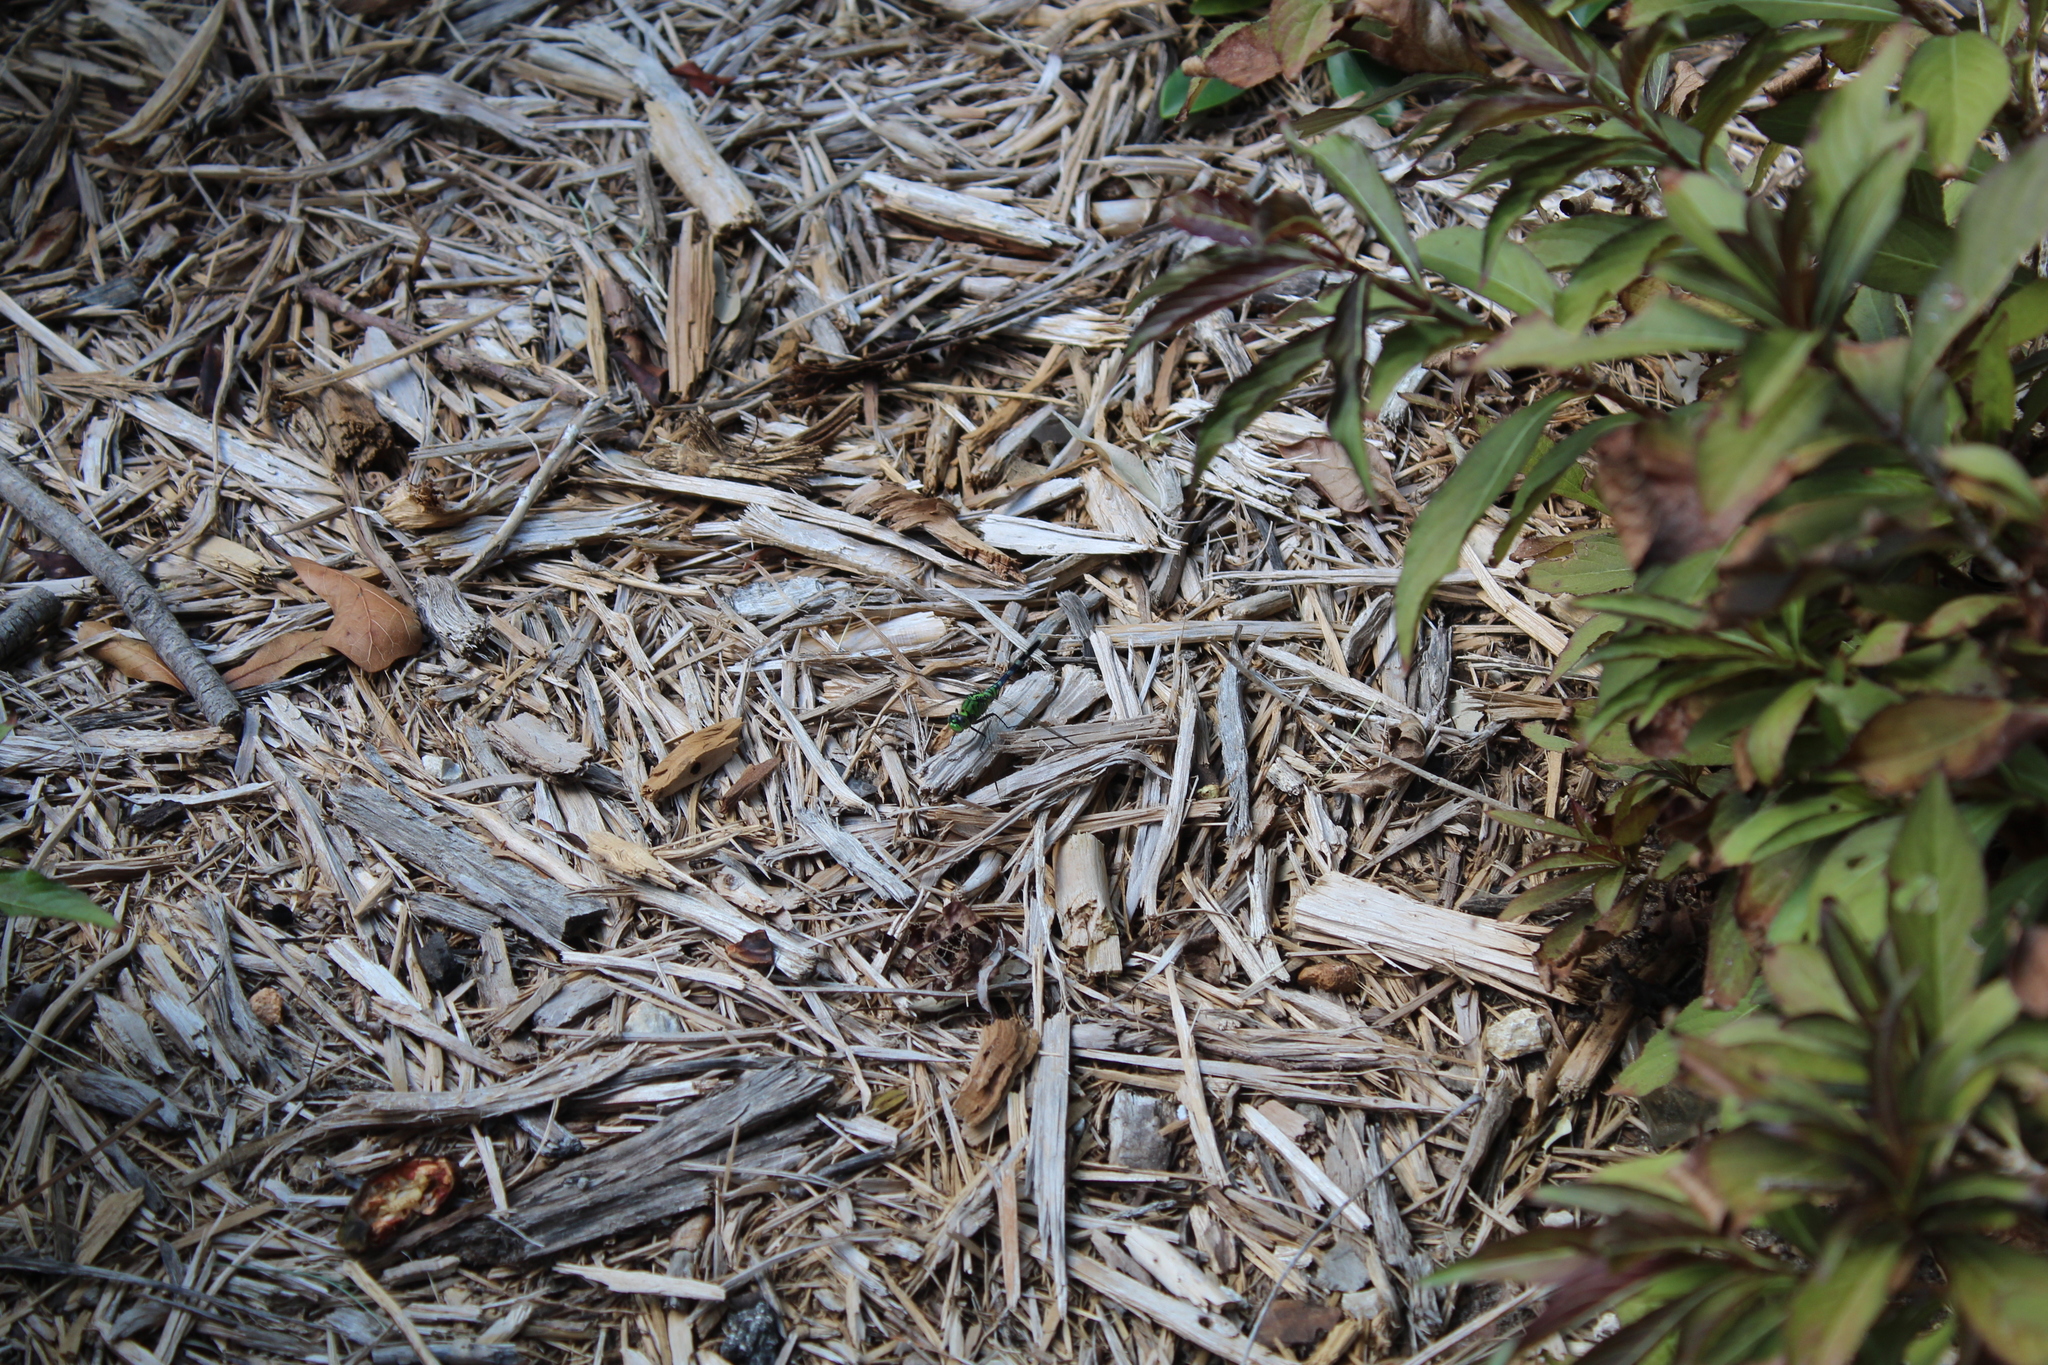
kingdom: Animalia
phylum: Arthropoda
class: Insecta
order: Odonata
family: Libellulidae
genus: Erythemis
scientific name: Erythemis simplicicollis
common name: Eastern pondhawk
